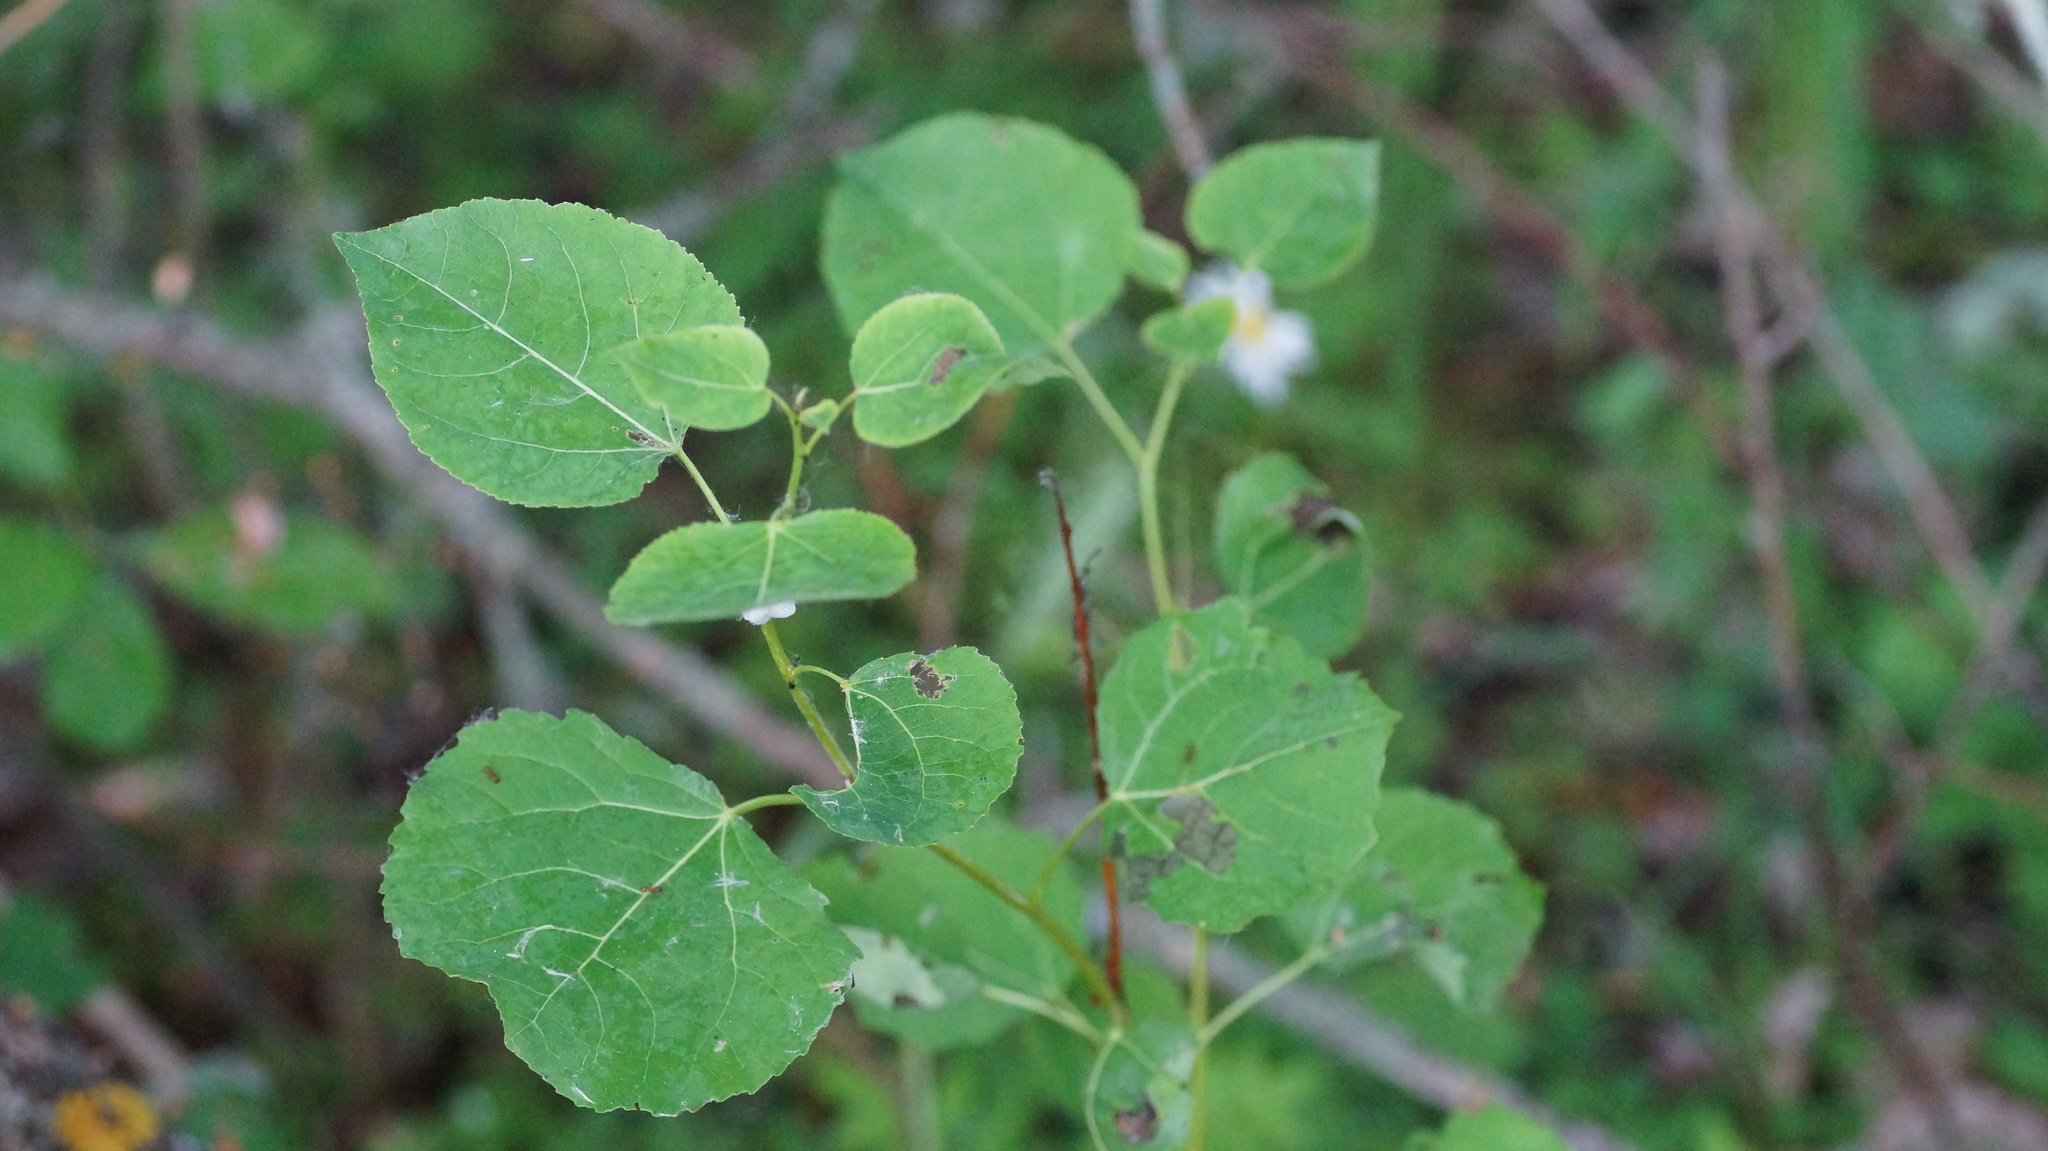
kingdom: Plantae
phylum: Tracheophyta
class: Magnoliopsida
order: Malpighiales
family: Salicaceae
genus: Populus
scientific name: Populus tremula
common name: European aspen
